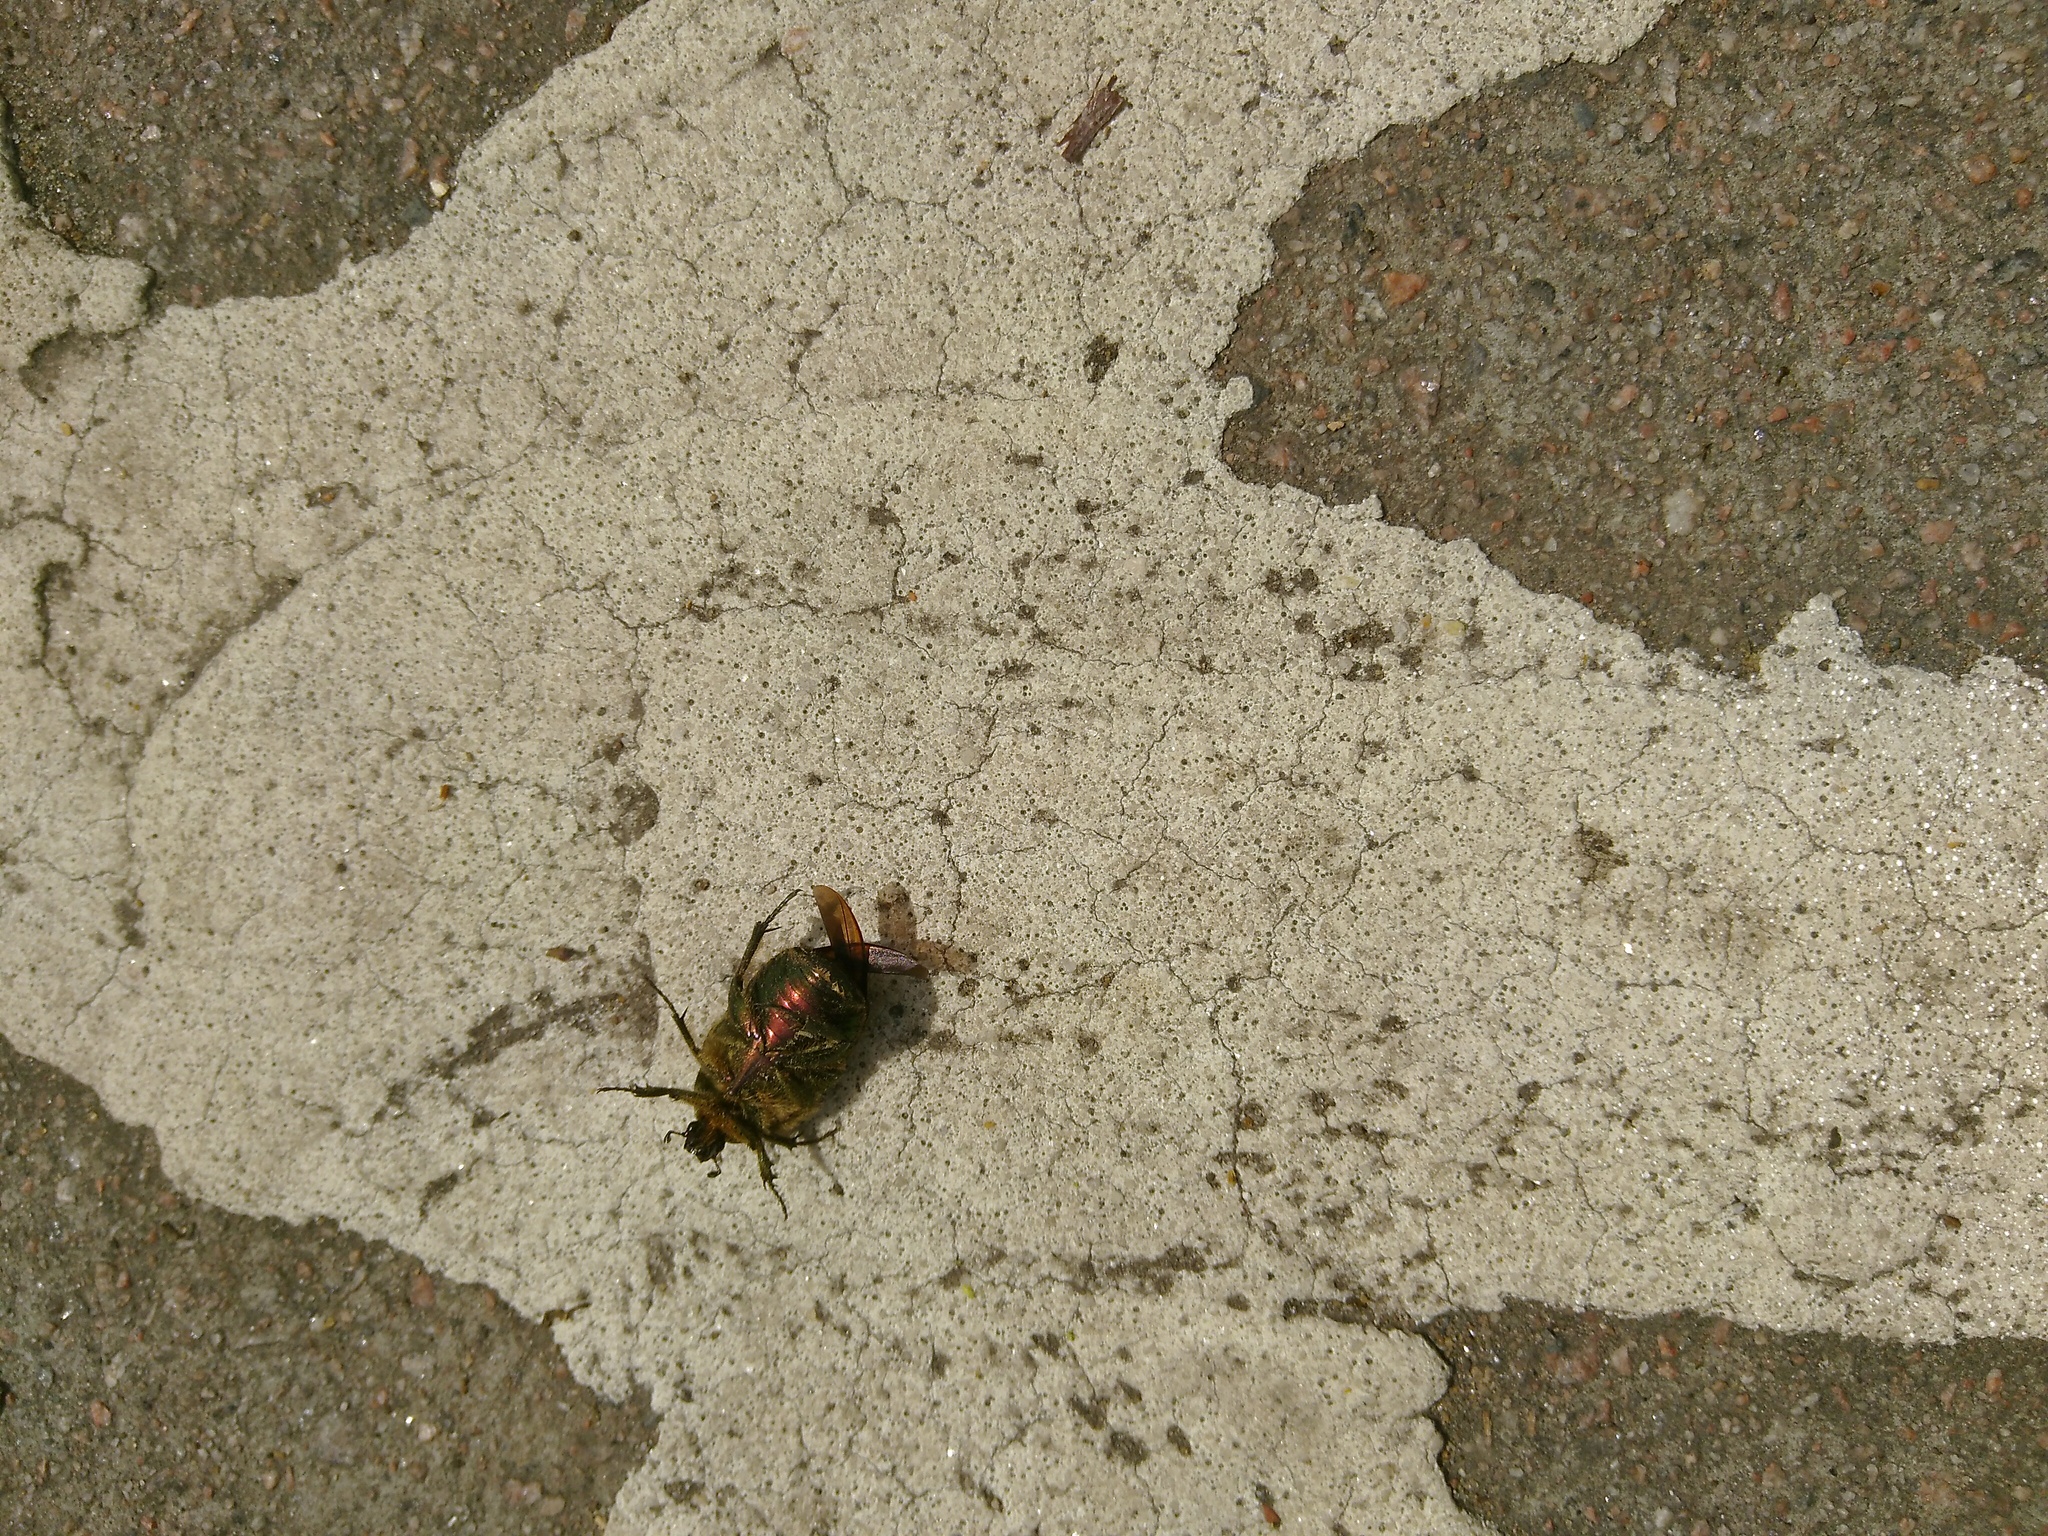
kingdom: Animalia
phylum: Arthropoda
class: Insecta
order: Coleoptera
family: Scarabaeidae
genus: Cetonia
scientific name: Cetonia aurata
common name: Rose chafer
